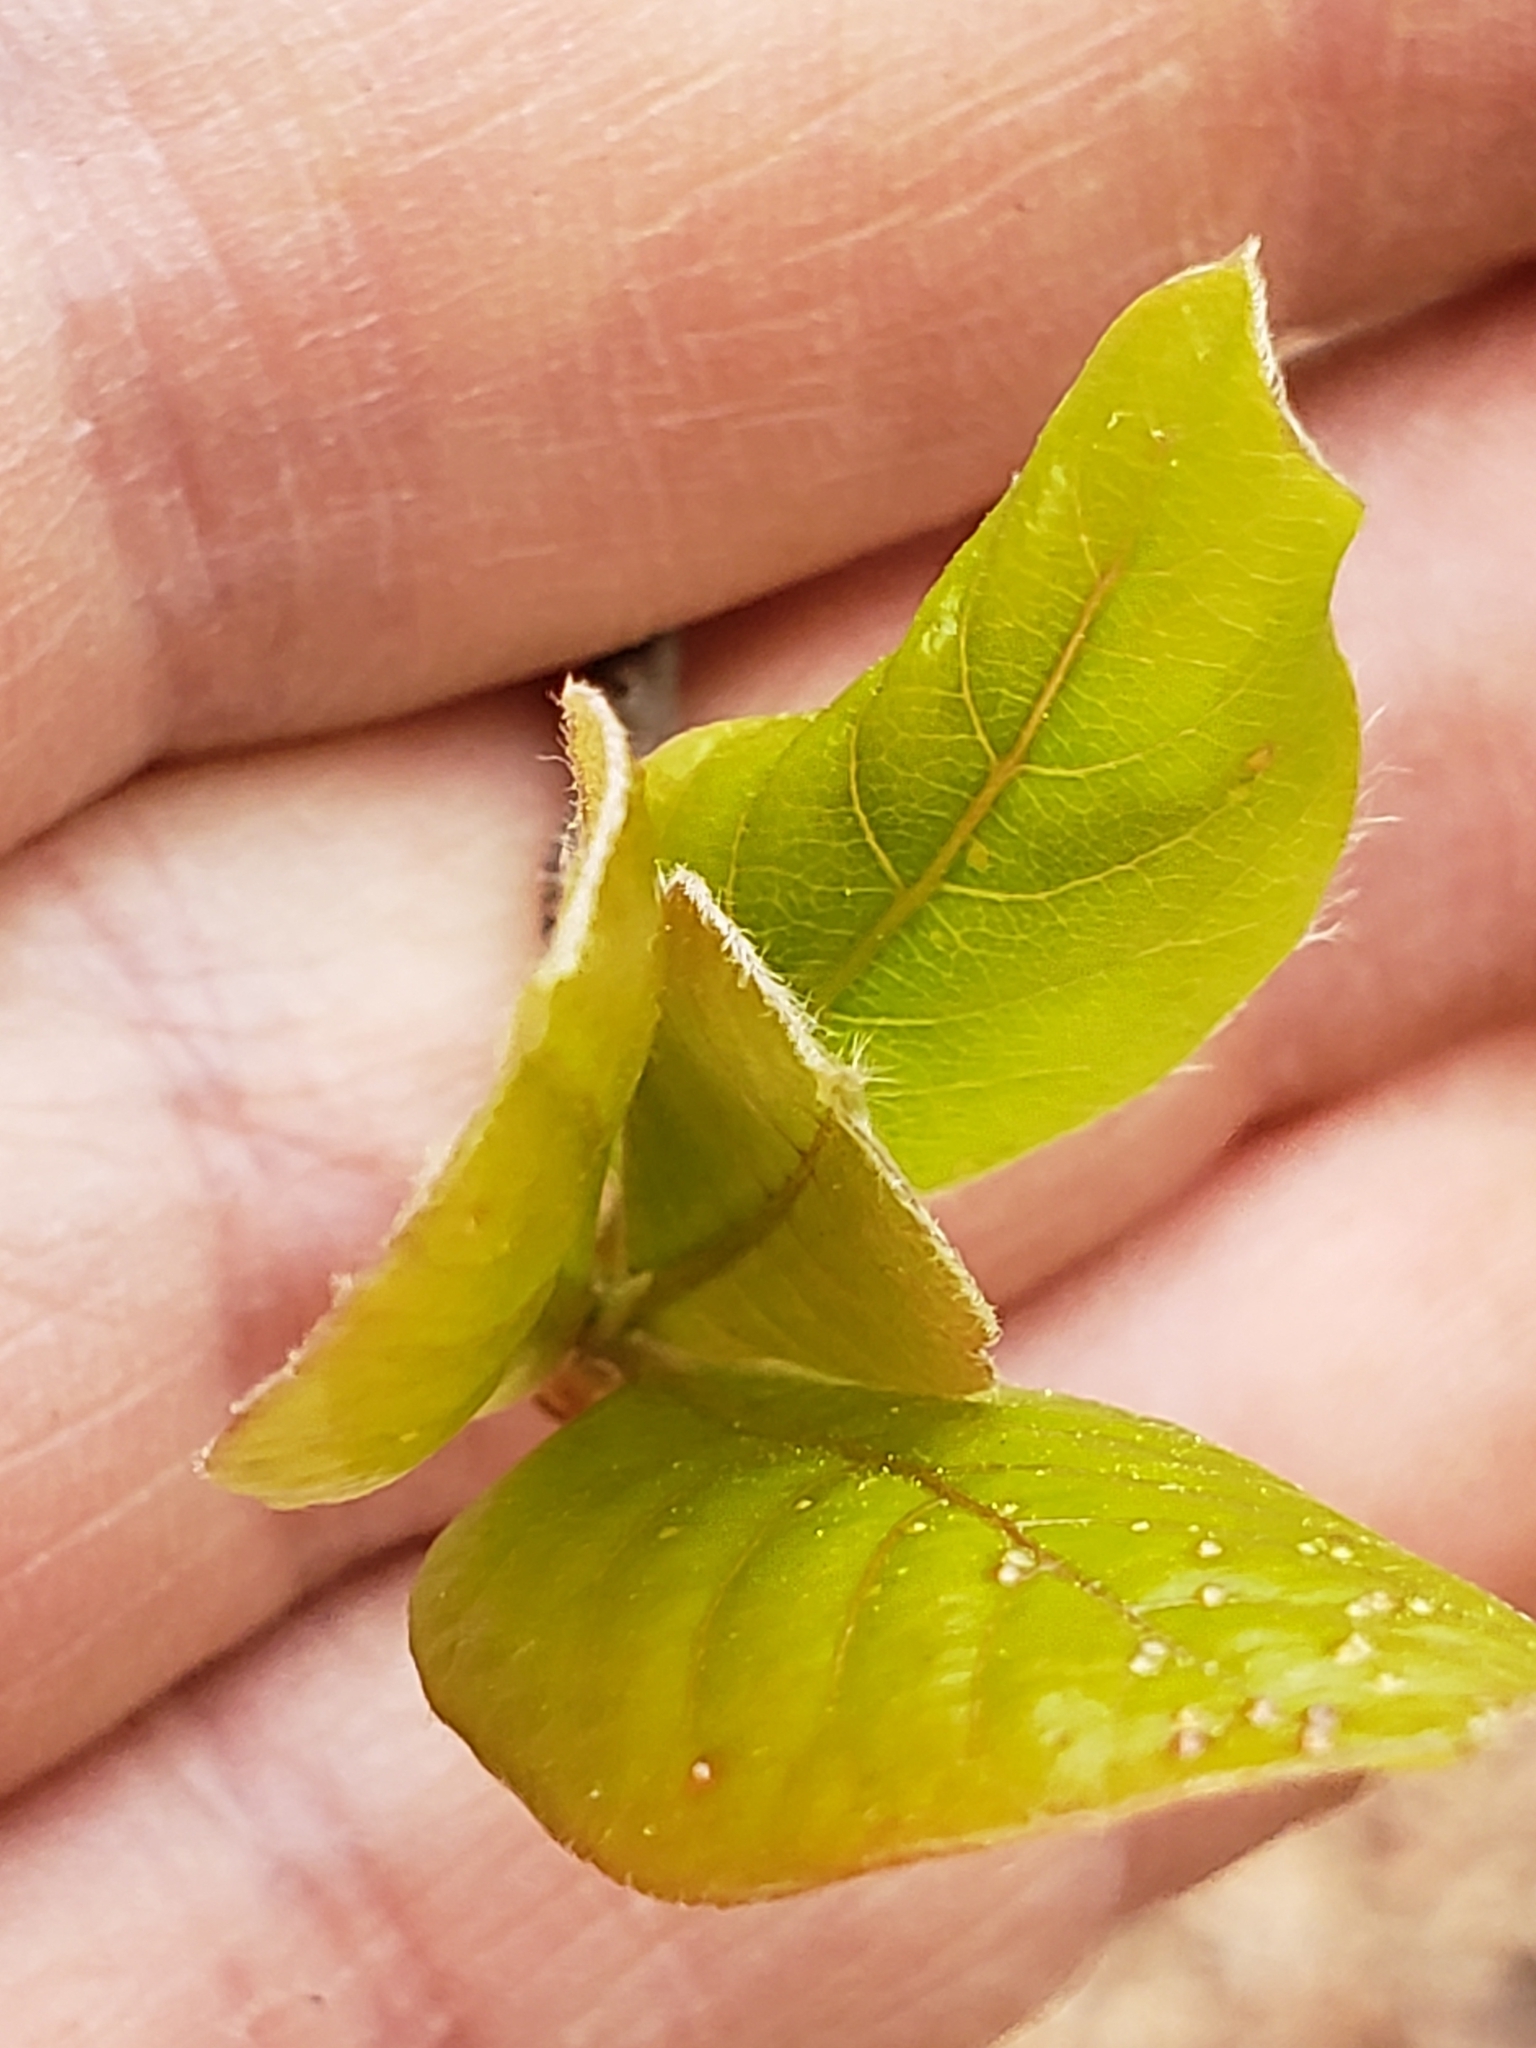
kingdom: Plantae
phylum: Tracheophyta
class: Magnoliopsida
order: Cornales
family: Nyssaceae
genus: Nyssa
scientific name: Nyssa sylvatica
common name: Black tupelo
